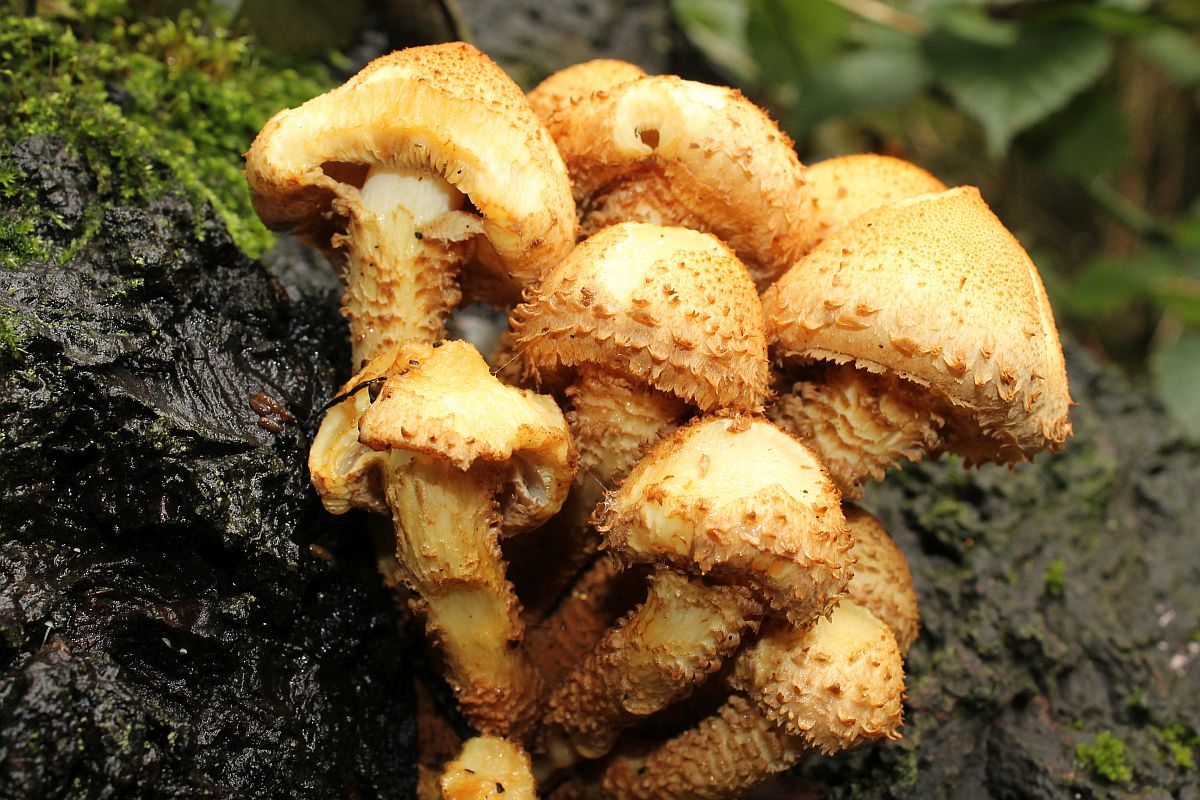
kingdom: Fungi
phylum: Basidiomycota
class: Agaricomycetes
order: Agaricales
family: Strophariaceae
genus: Pholiota
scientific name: Pholiota squarrosa
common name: Shaggy pholiota
